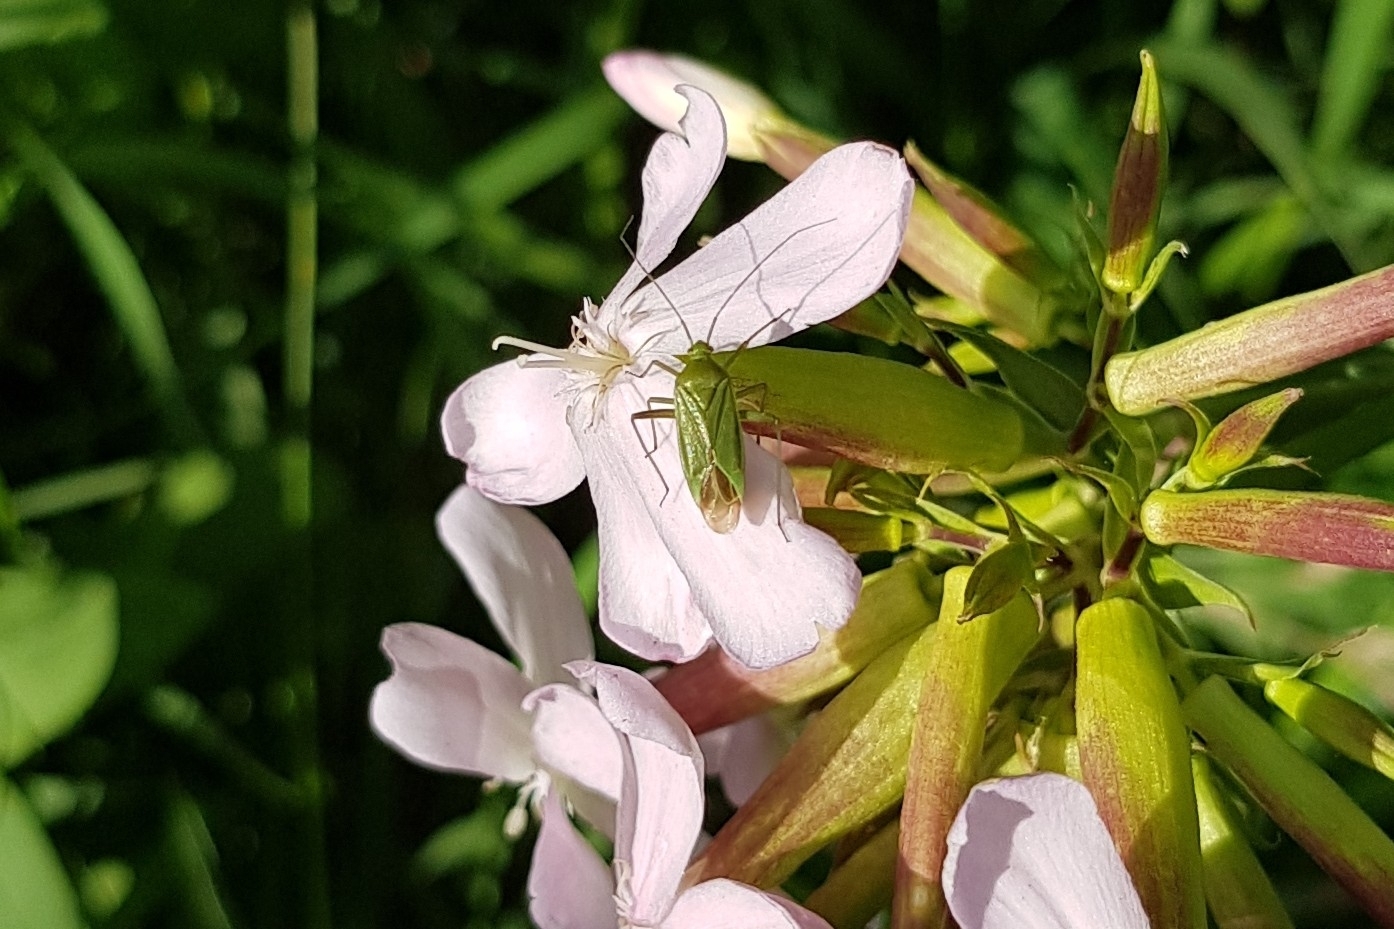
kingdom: Animalia
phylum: Arthropoda
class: Insecta
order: Hemiptera
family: Miridae
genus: Calocoris
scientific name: Calocoris affinis
